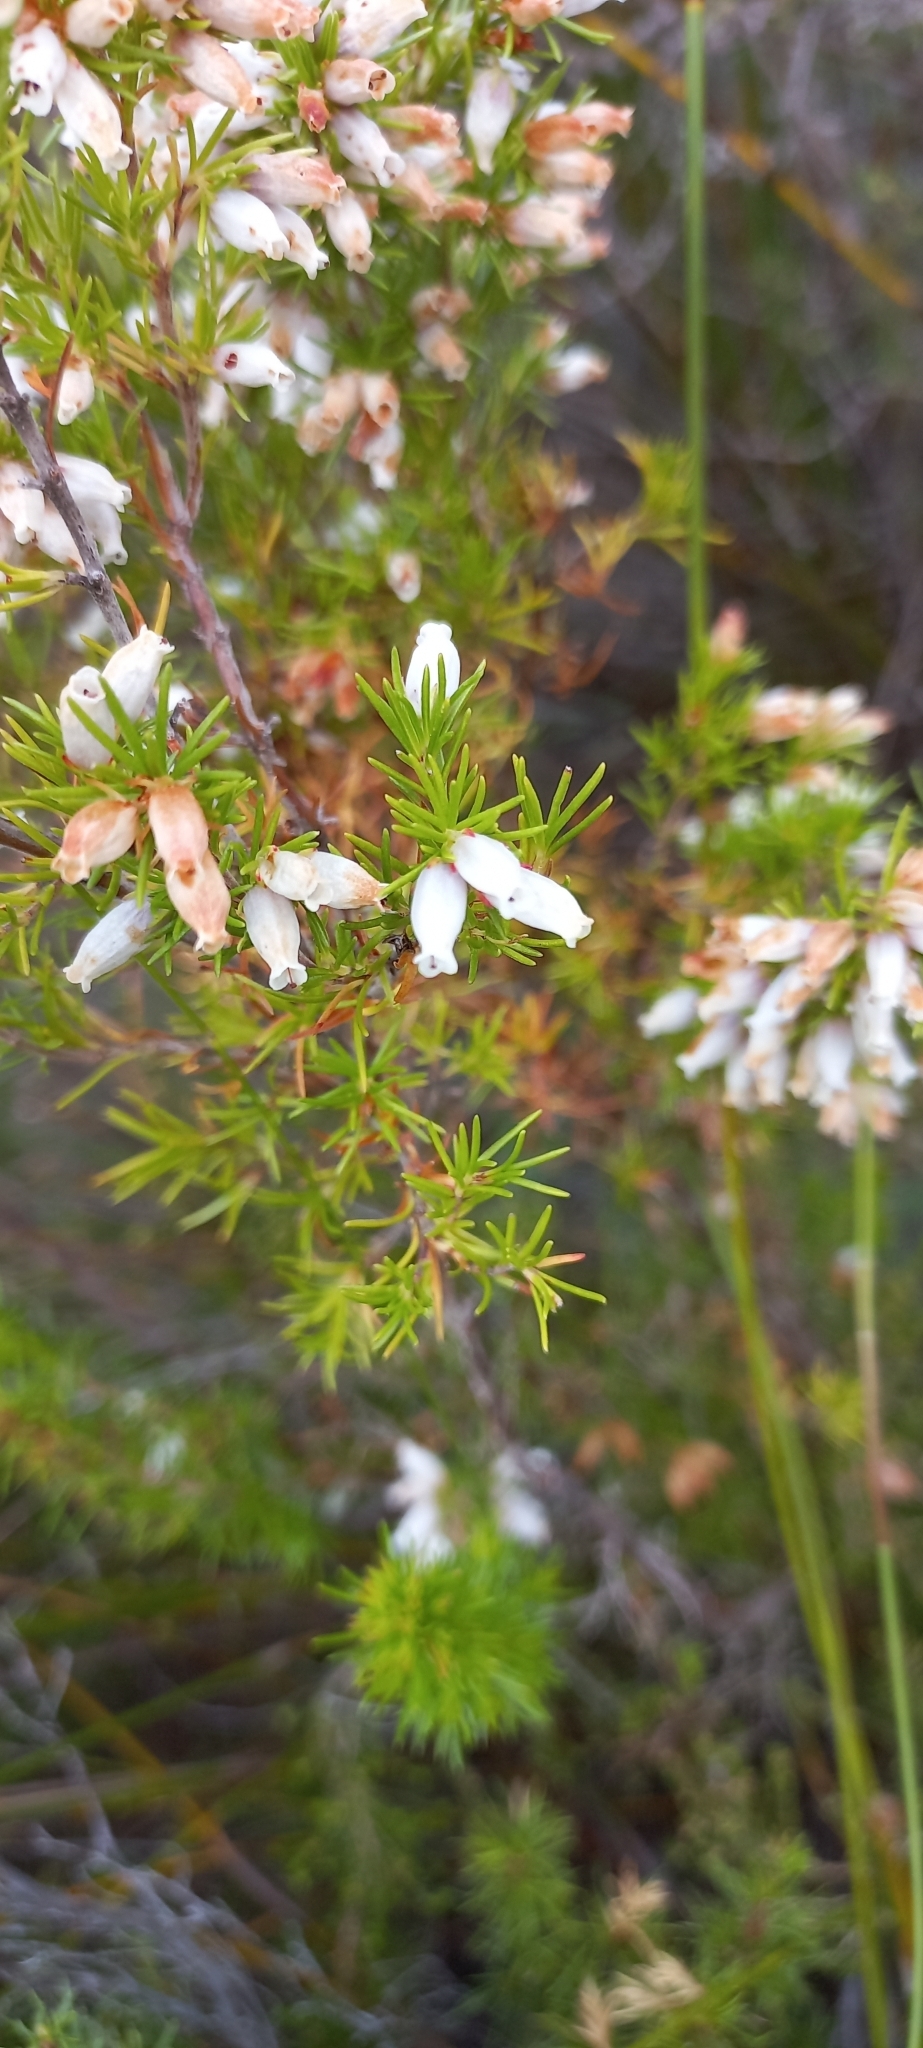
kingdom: Plantae
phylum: Tracheophyta
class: Magnoliopsida
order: Ericales
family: Ericaceae
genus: Erica
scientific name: Erica sitiens
